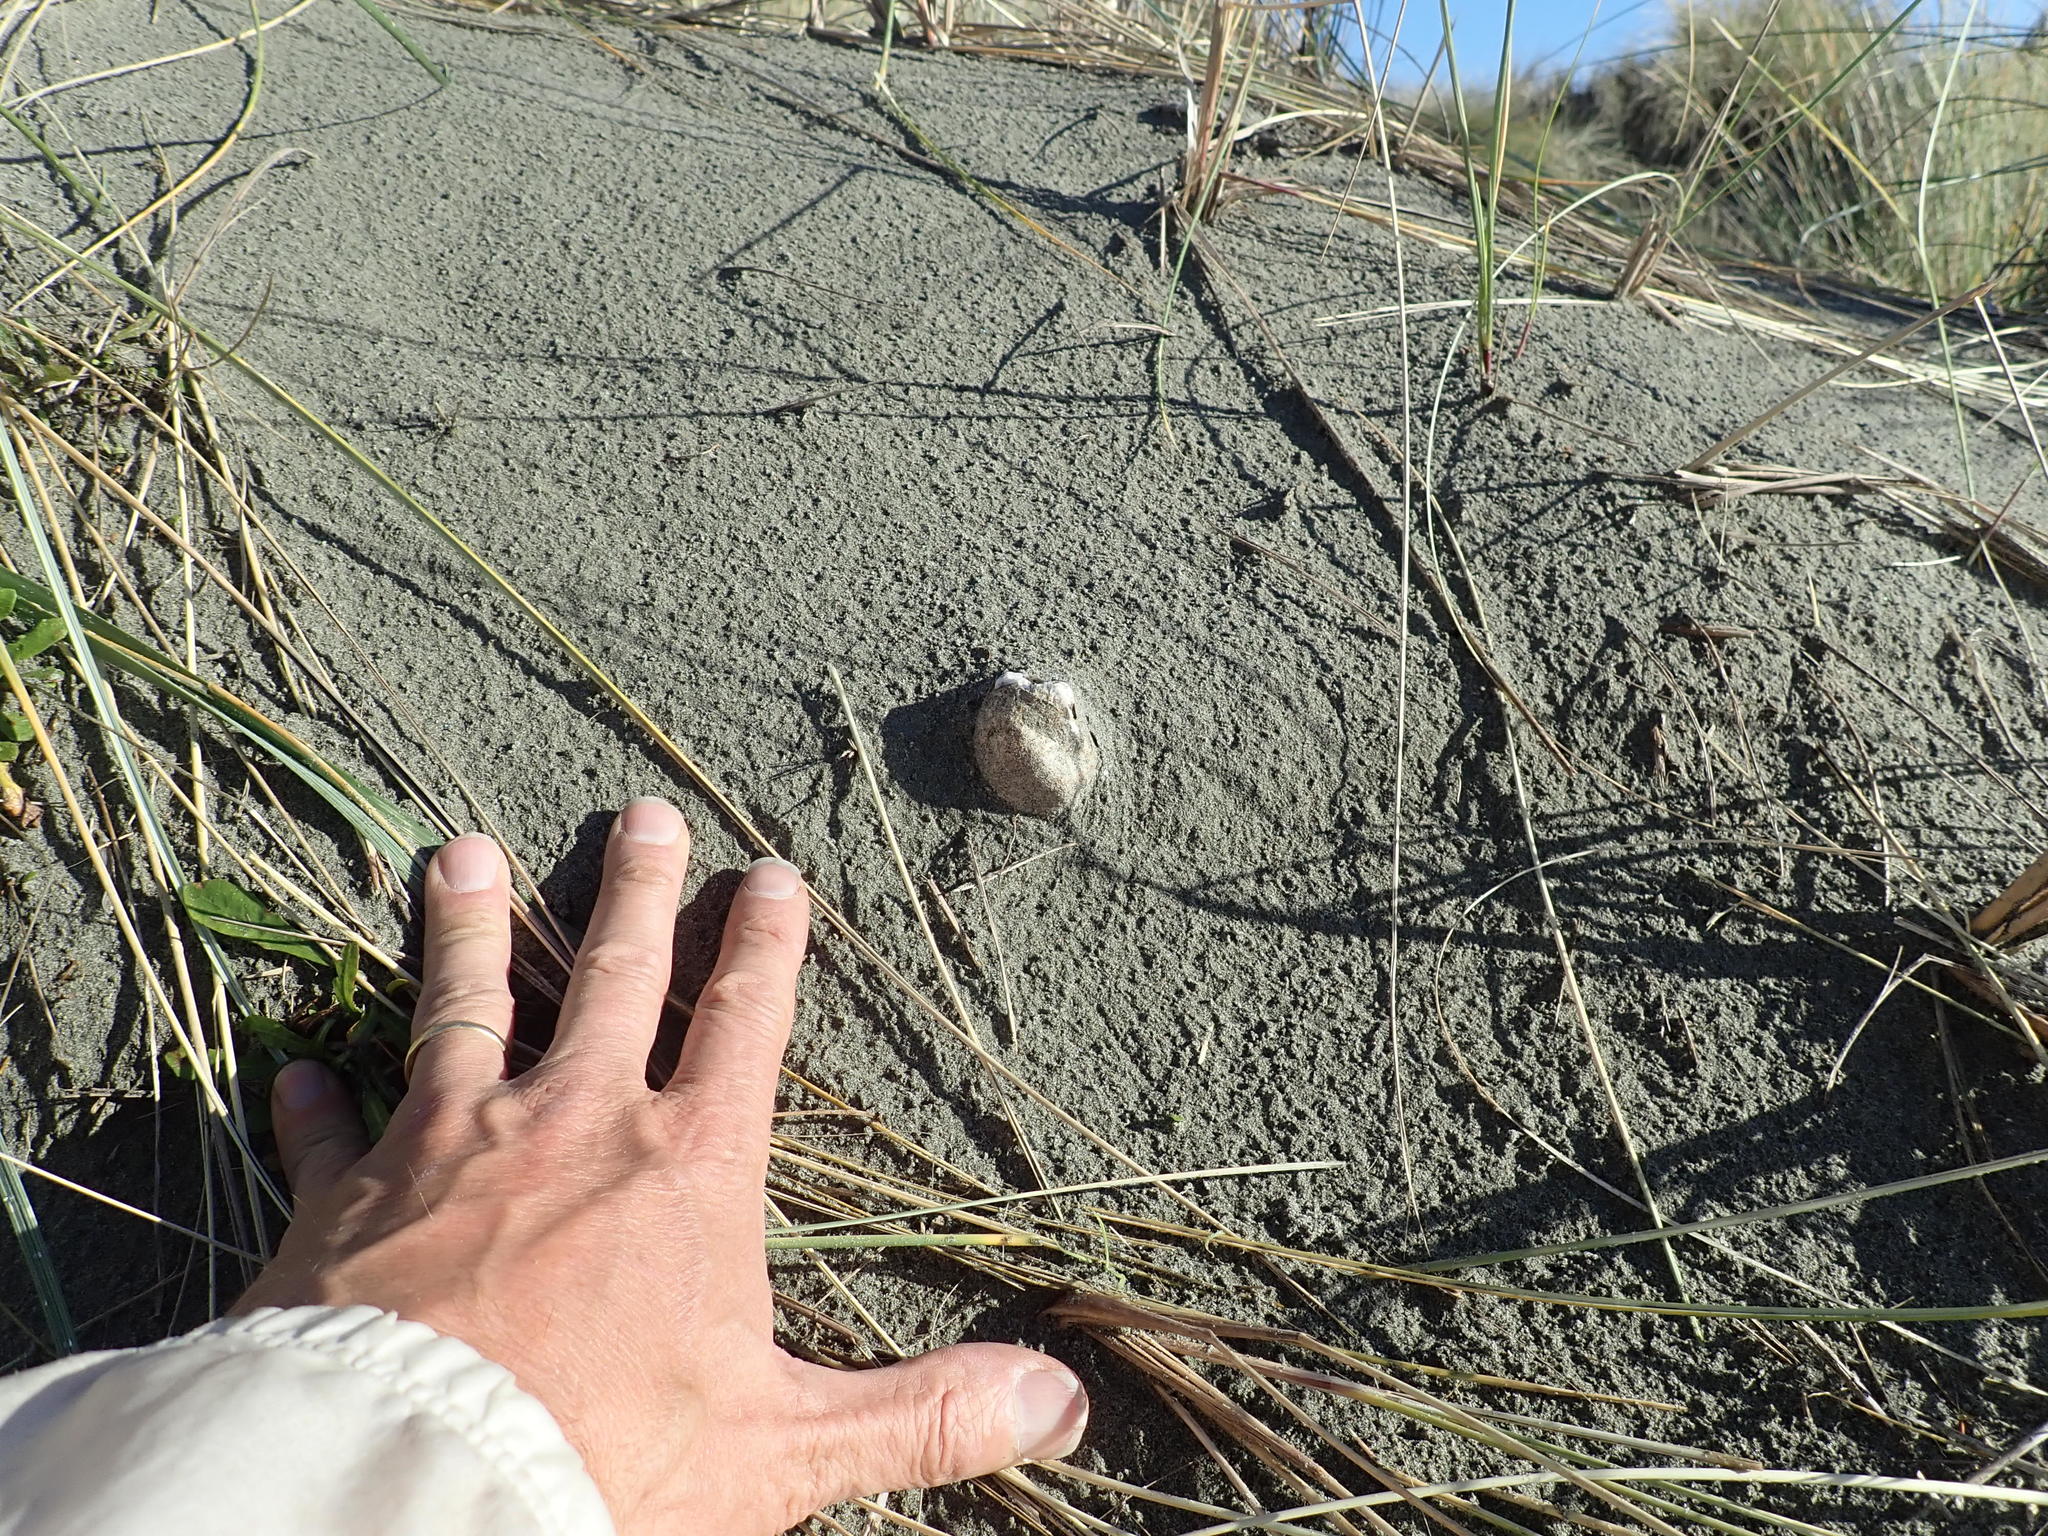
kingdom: Fungi
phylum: Basidiomycota
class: Agaricomycetes
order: Phallales
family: Phallaceae
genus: Ileodictyon
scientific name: Ileodictyon cibarium
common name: Basket fungus
